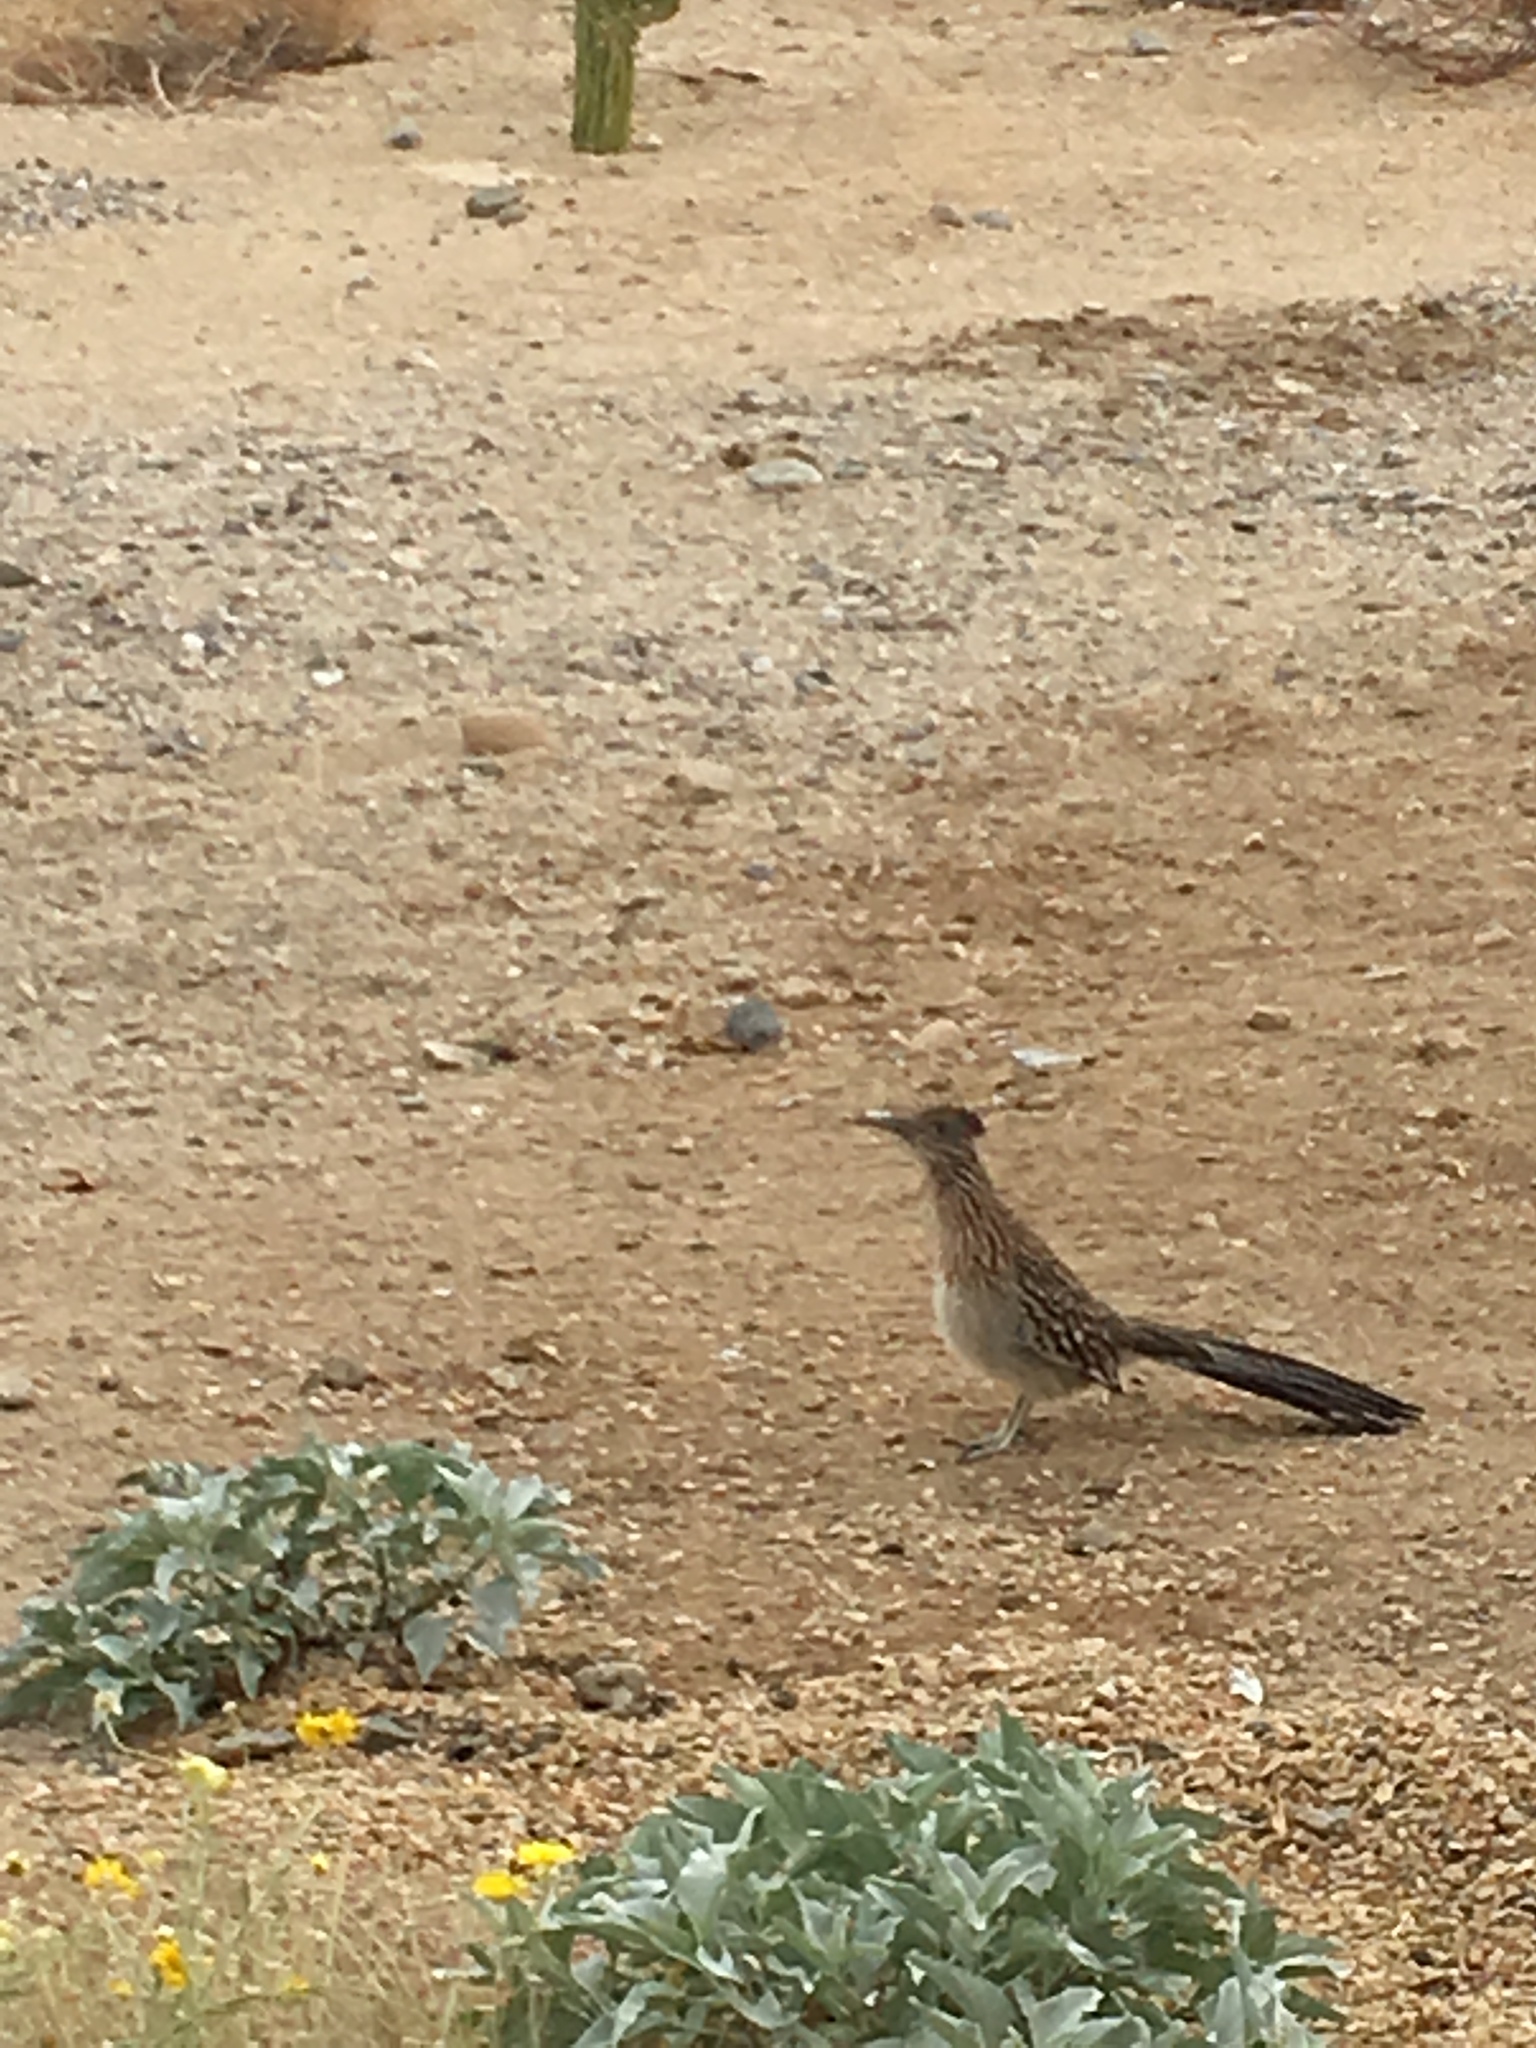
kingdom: Animalia
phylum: Chordata
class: Aves
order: Cuculiformes
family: Cuculidae
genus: Geococcyx
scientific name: Geococcyx californianus
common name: Greater roadrunner
